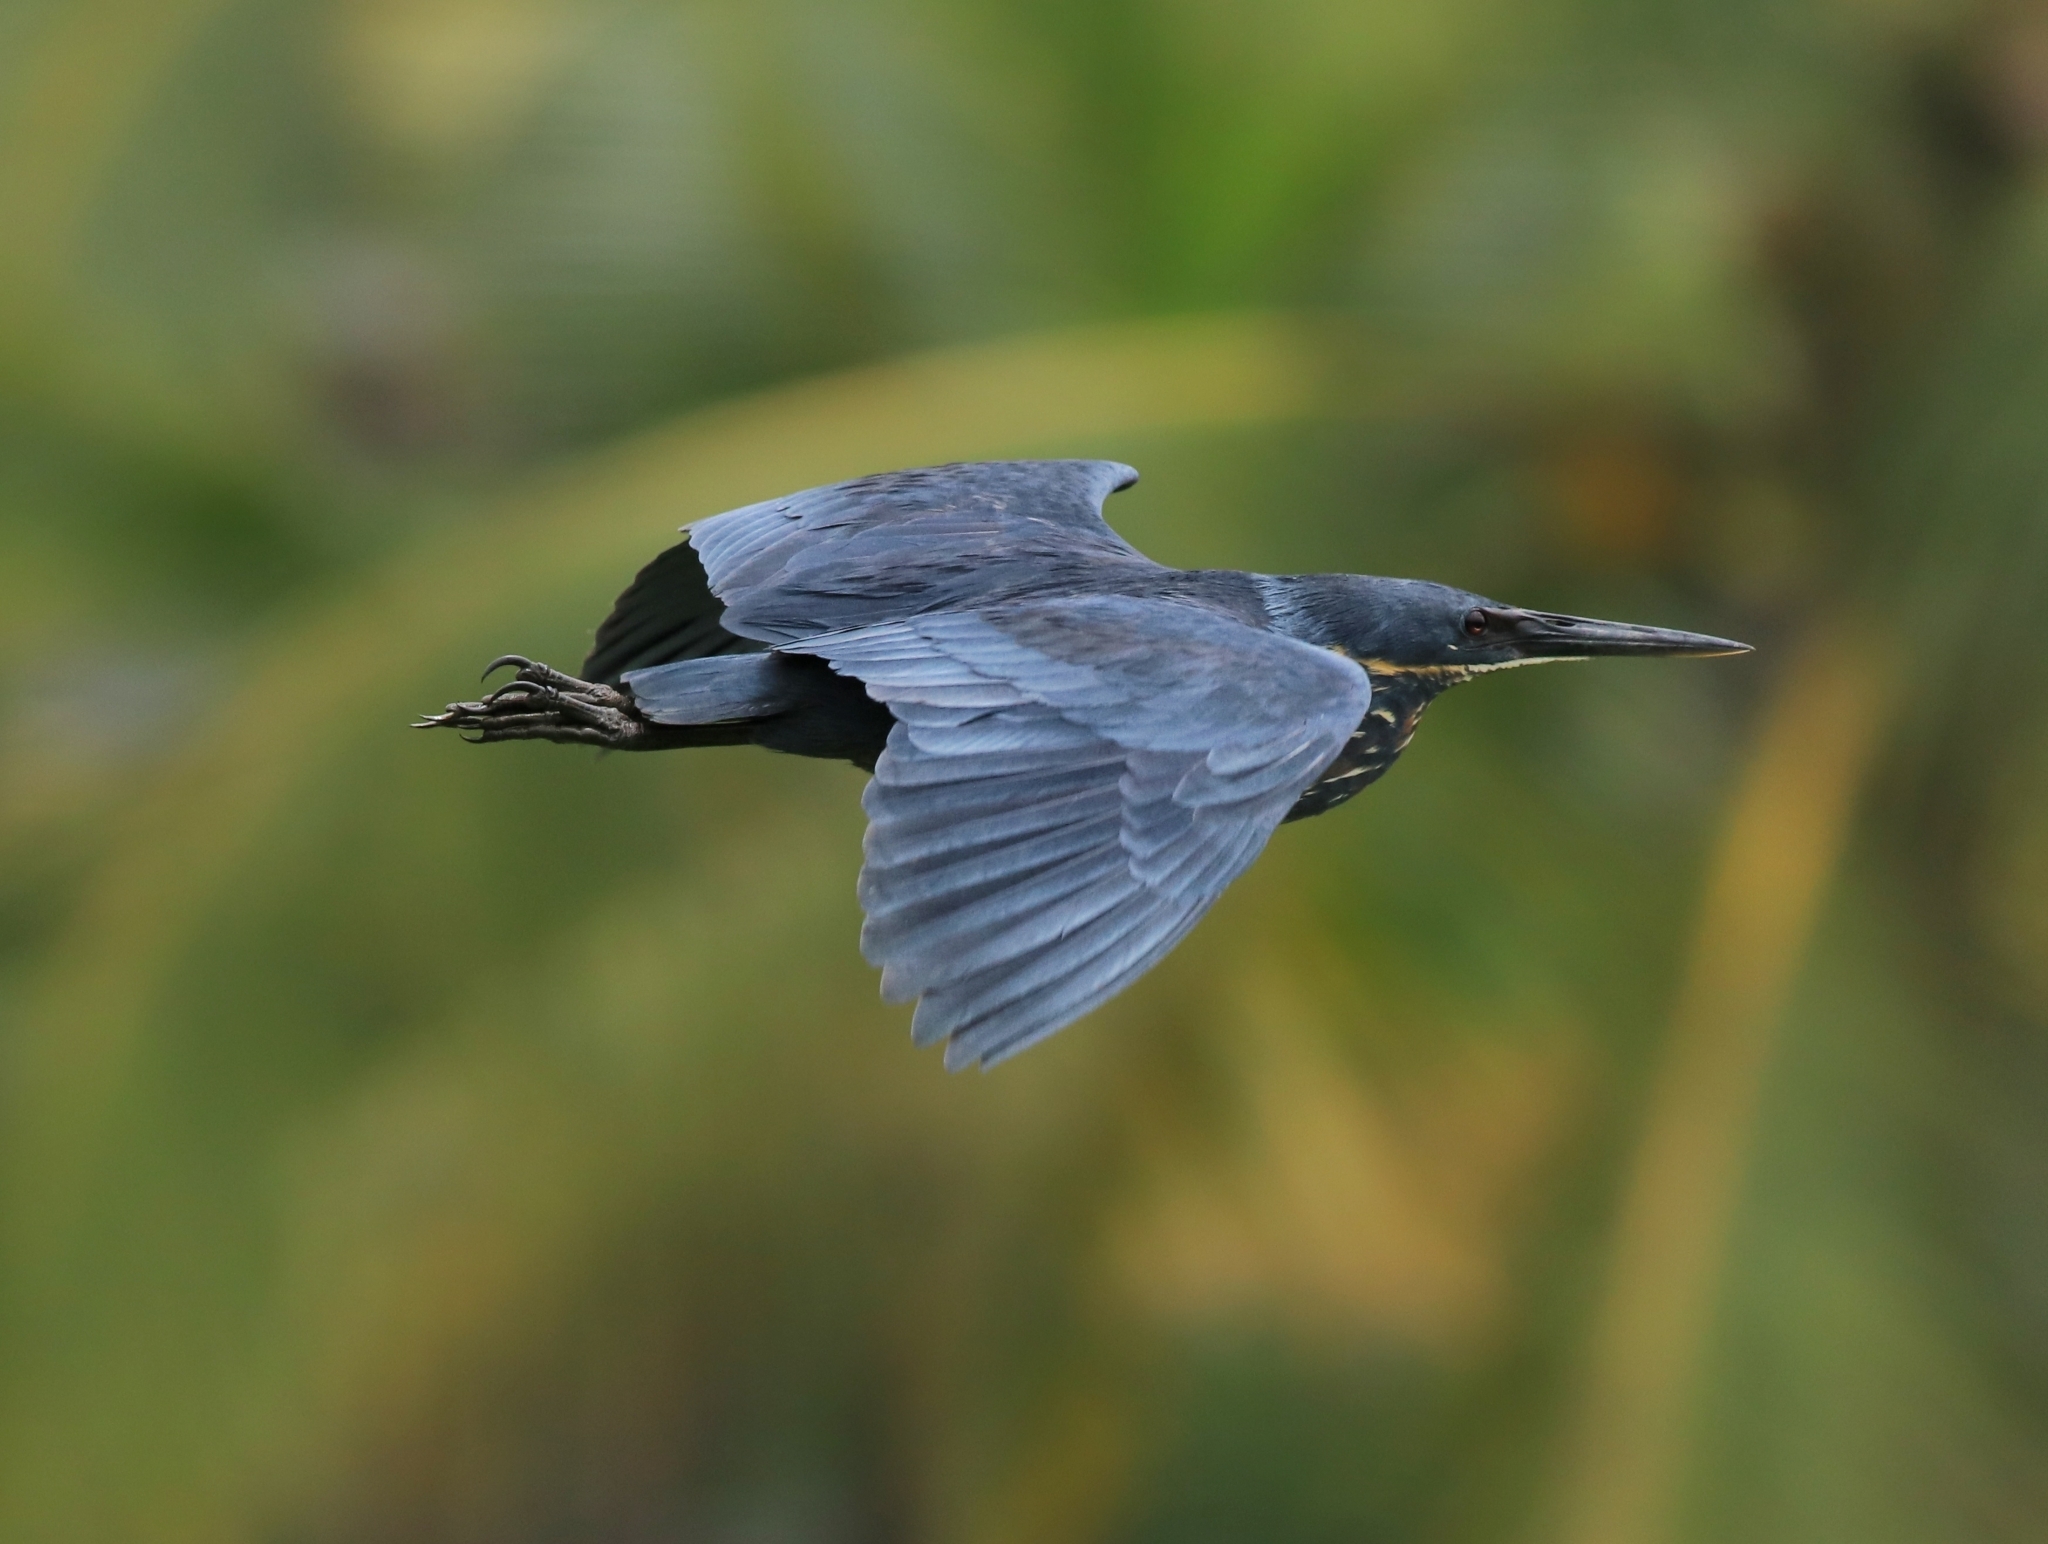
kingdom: Animalia
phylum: Chordata
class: Aves
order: Pelecaniformes
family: Ardeidae
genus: Dupetor
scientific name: Dupetor flavicollis
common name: Black bittern
